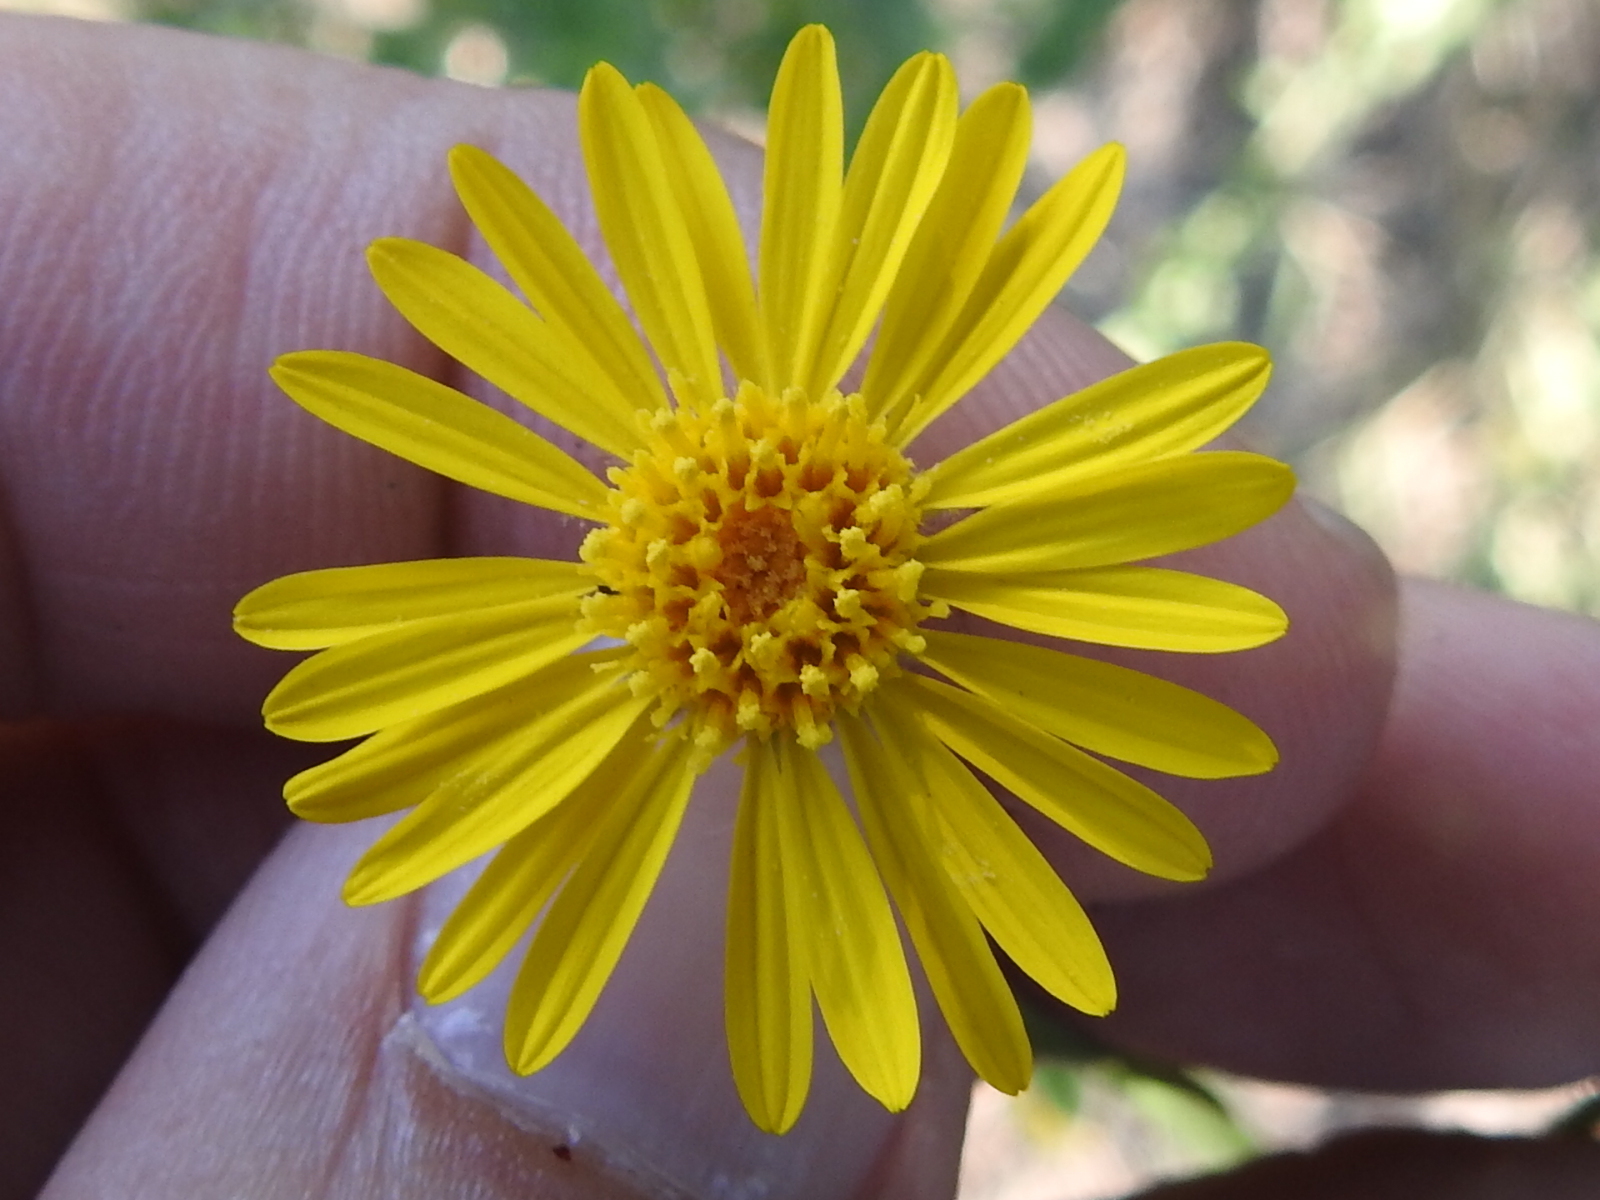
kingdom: Plantae
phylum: Tracheophyta
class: Magnoliopsida
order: Asterales
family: Asteraceae
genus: Heterotheca
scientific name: Heterotheca subaxillaris
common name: Camphorweed
